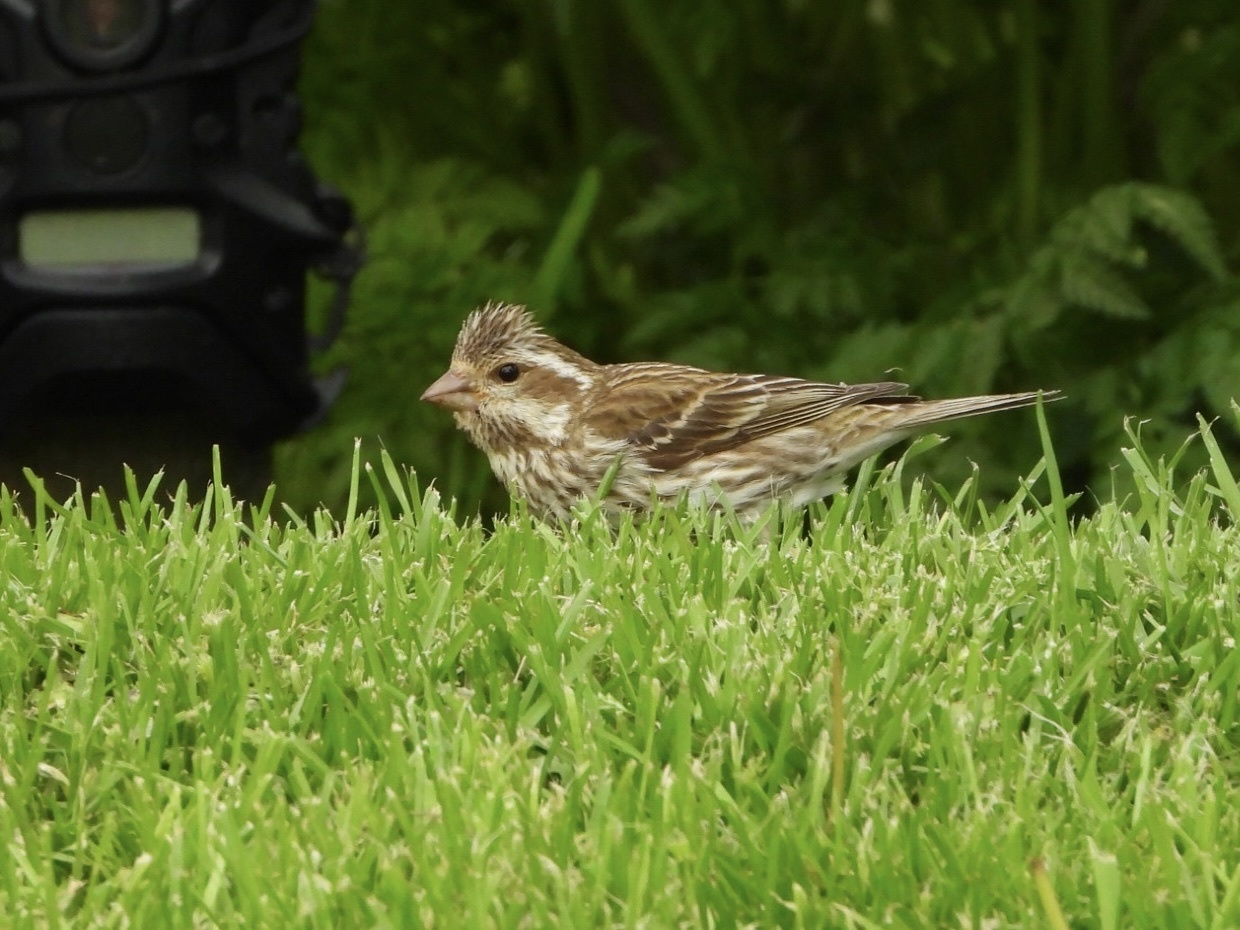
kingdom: Animalia
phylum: Chordata
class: Aves
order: Passeriformes
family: Fringillidae
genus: Haemorhous
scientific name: Haemorhous purpureus
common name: Purple finch
